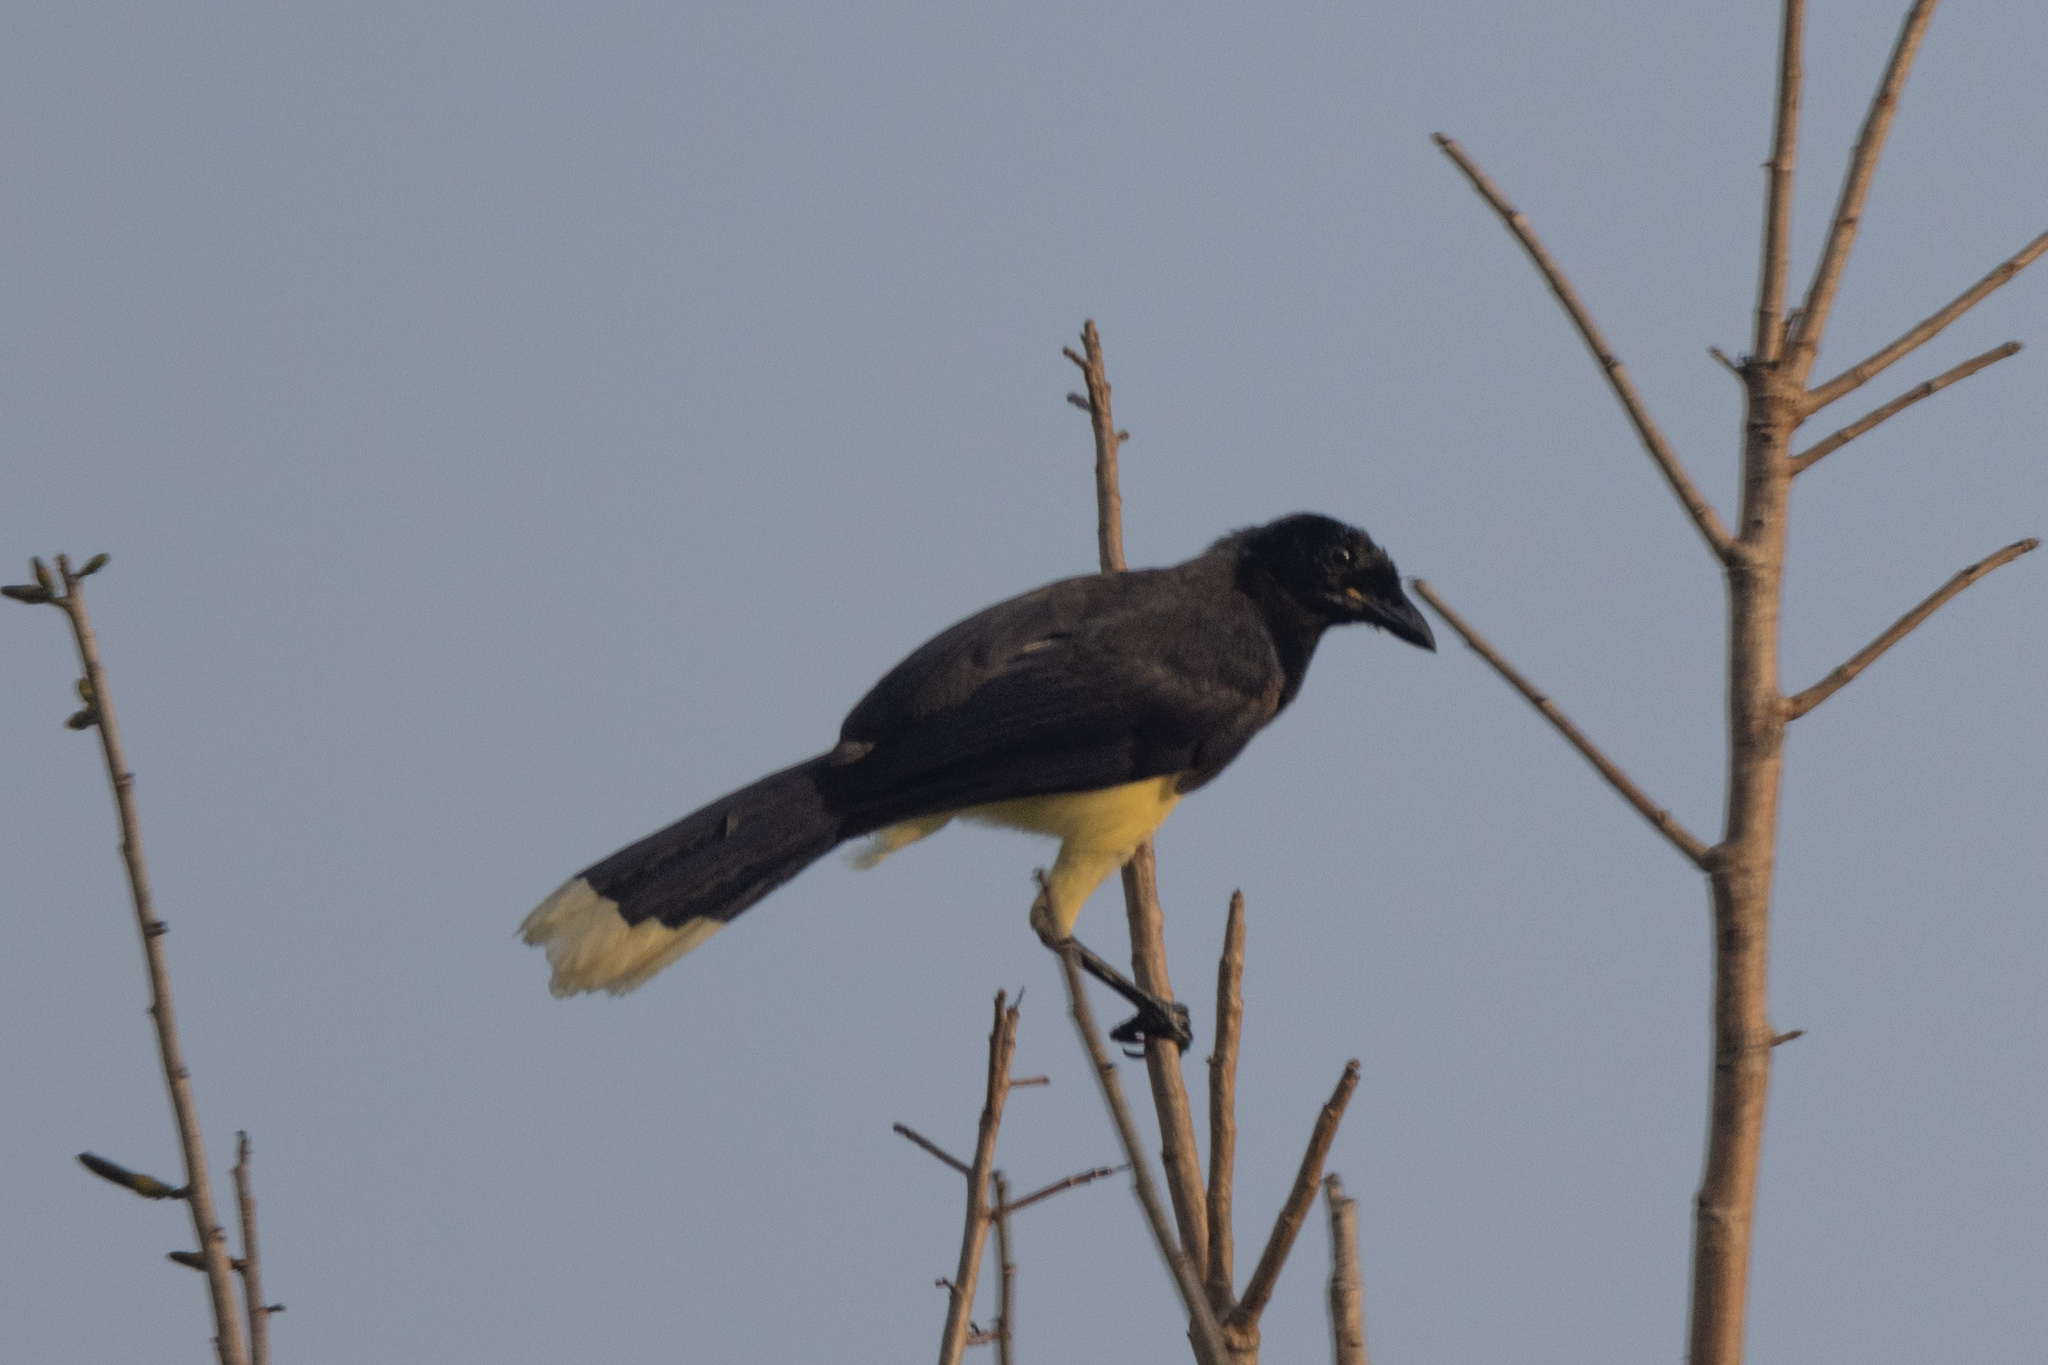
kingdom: Animalia
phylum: Chordata
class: Aves
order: Passeriformes
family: Corvidae
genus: Cyanocorax
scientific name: Cyanocorax affinis
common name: Black-chested jay
